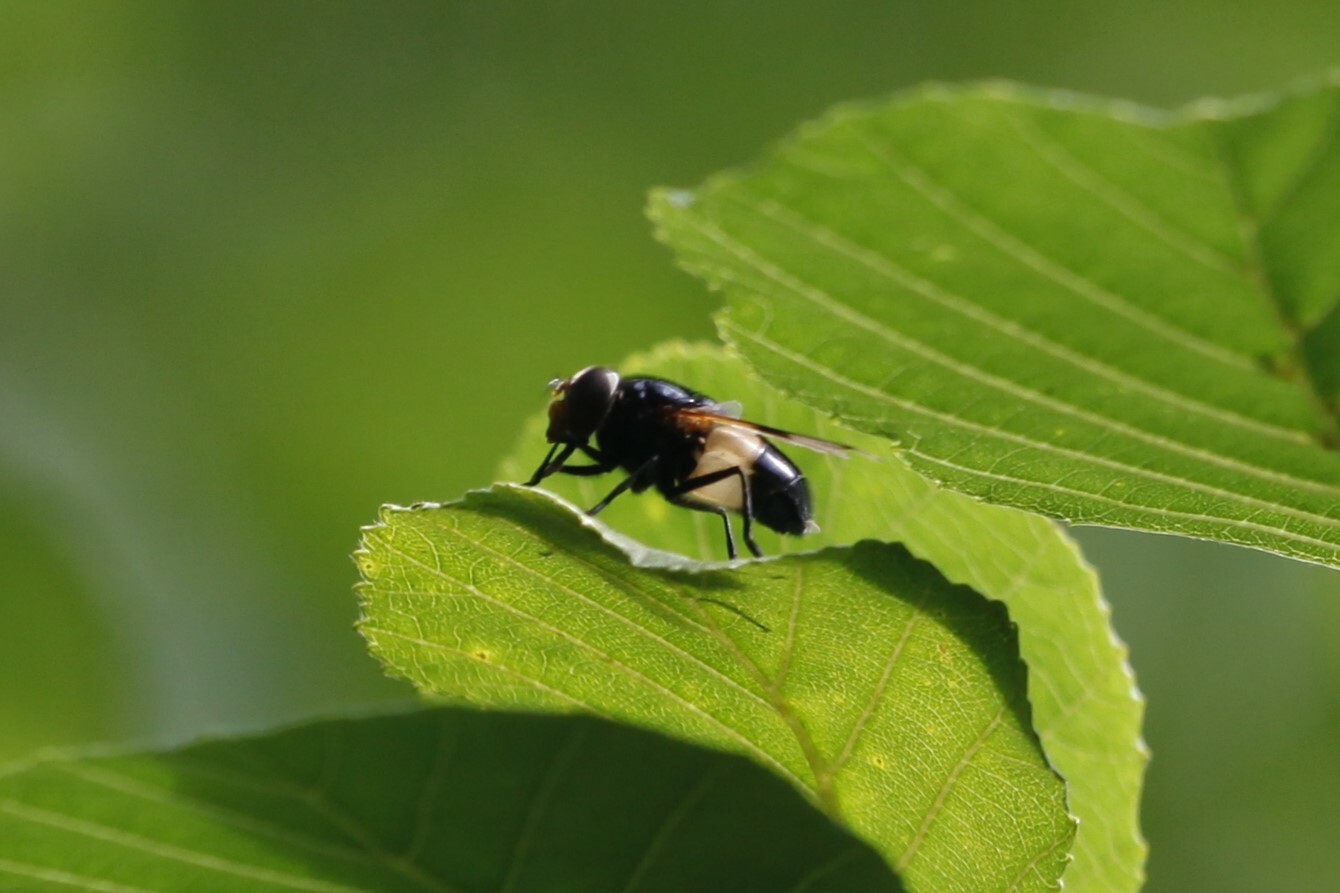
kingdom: Animalia
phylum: Arthropoda
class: Insecta
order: Diptera
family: Syrphidae
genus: Volucella
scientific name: Volucella pellucens
